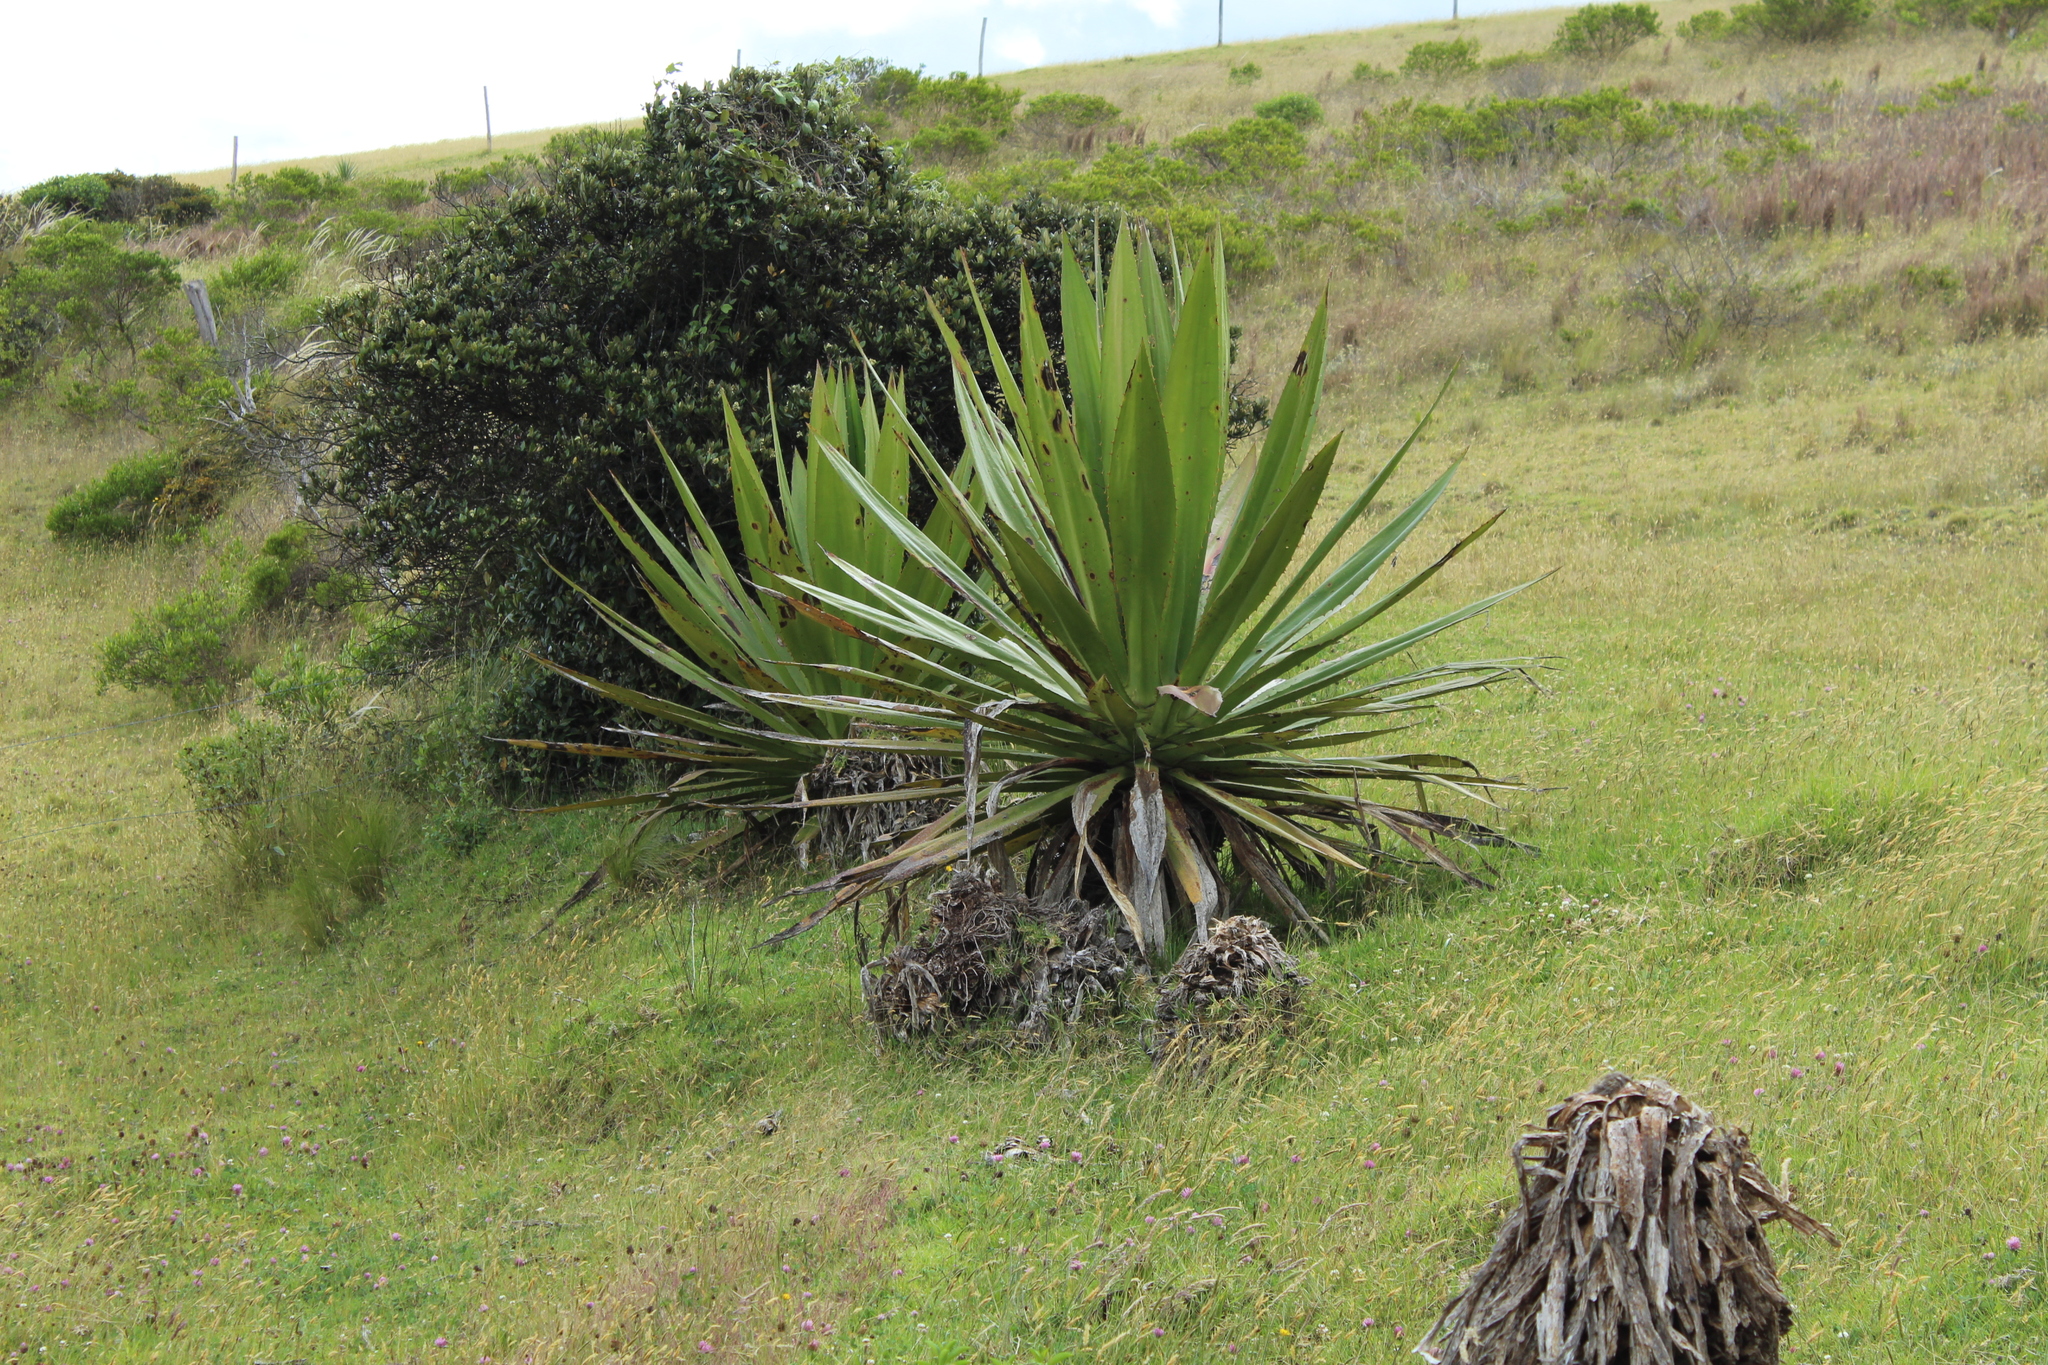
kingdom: Plantae
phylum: Tracheophyta
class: Liliopsida
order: Asparagales
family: Asparagaceae
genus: Furcraea
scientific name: Furcraea cabuya
